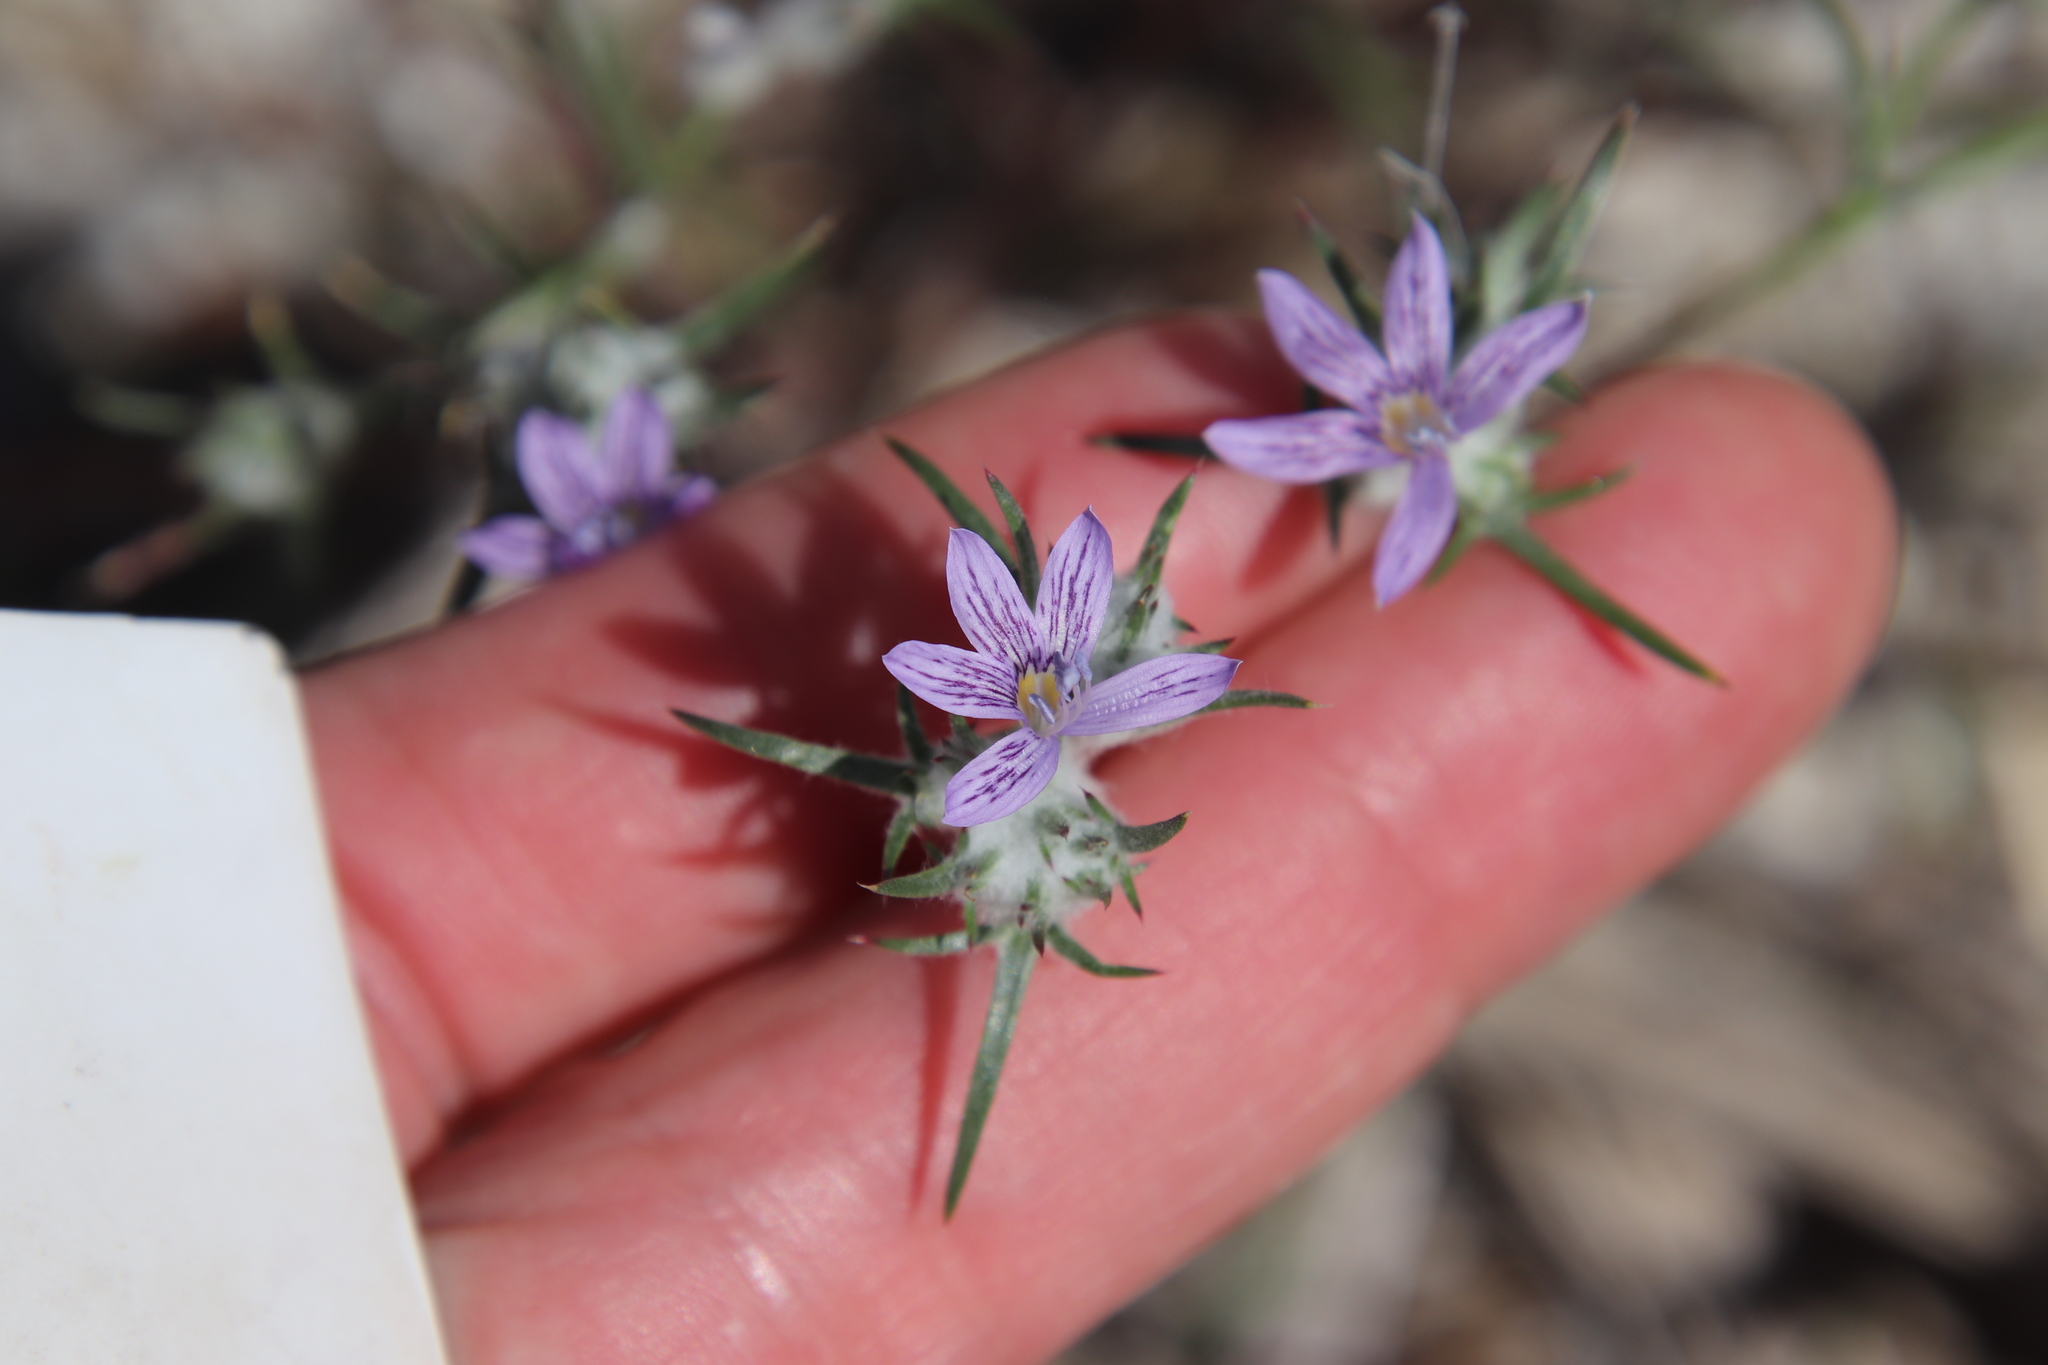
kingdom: Plantae
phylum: Tracheophyta
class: Magnoliopsida
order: Ericales
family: Polemoniaceae
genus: Eriastrum
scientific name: Eriastrum eremicum
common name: Desert eriastrum
